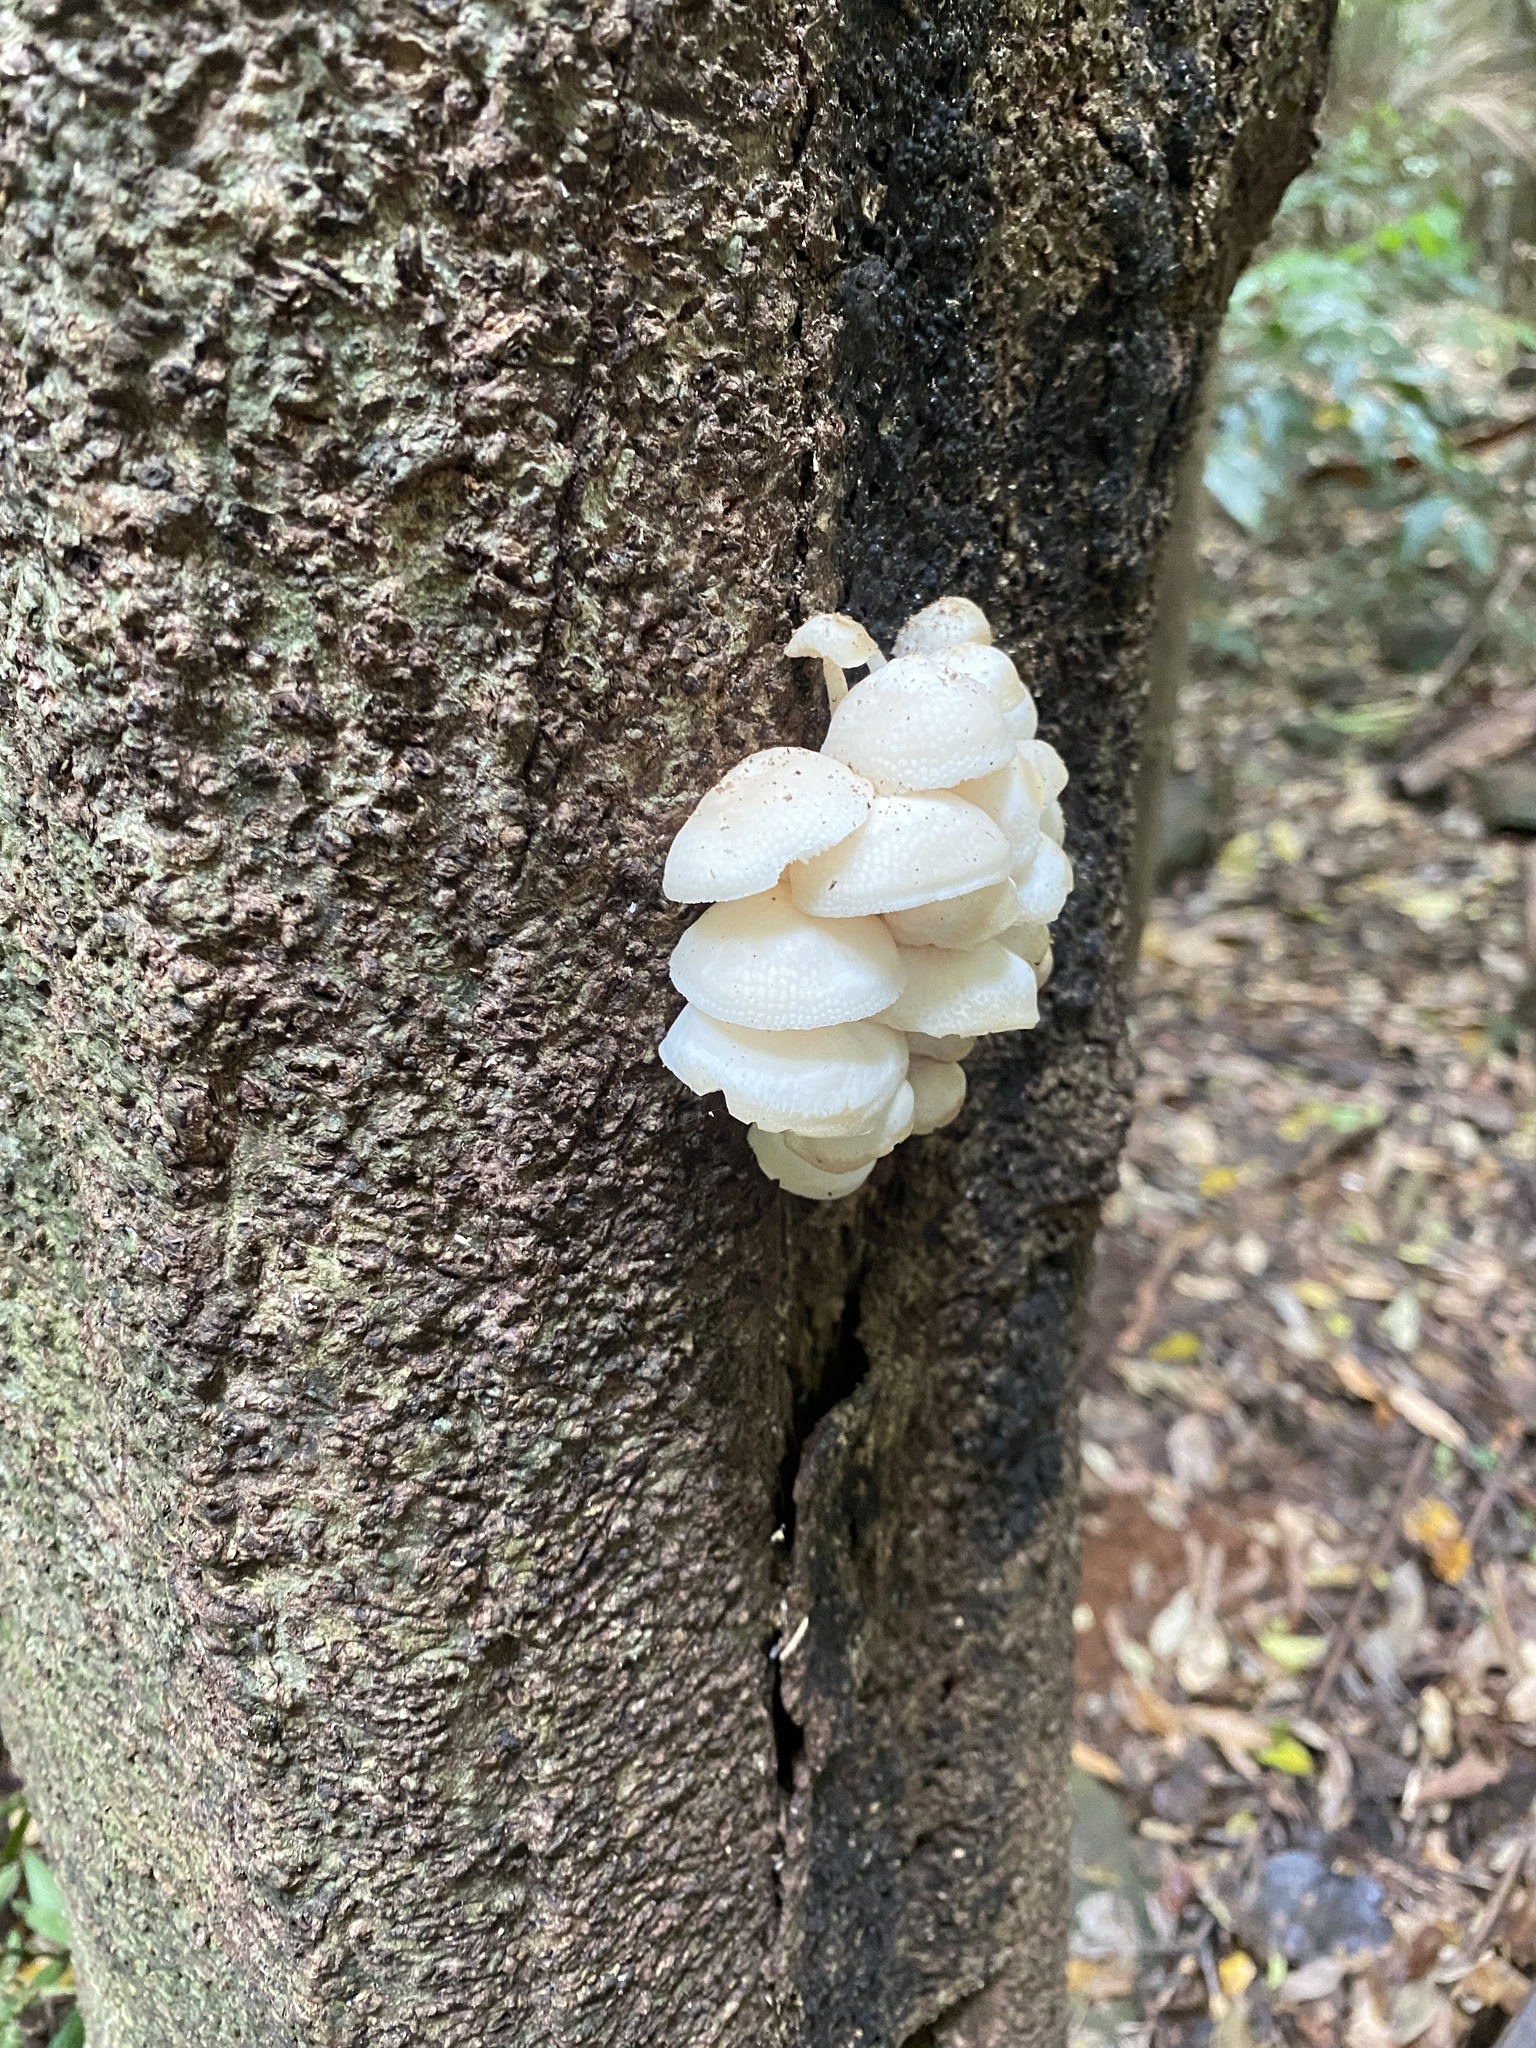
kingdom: Fungi
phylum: Basidiomycota
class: Agaricomycetes
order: Agaricales
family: Mycenaceae
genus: Filoboletus
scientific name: Filoboletus manipularis
